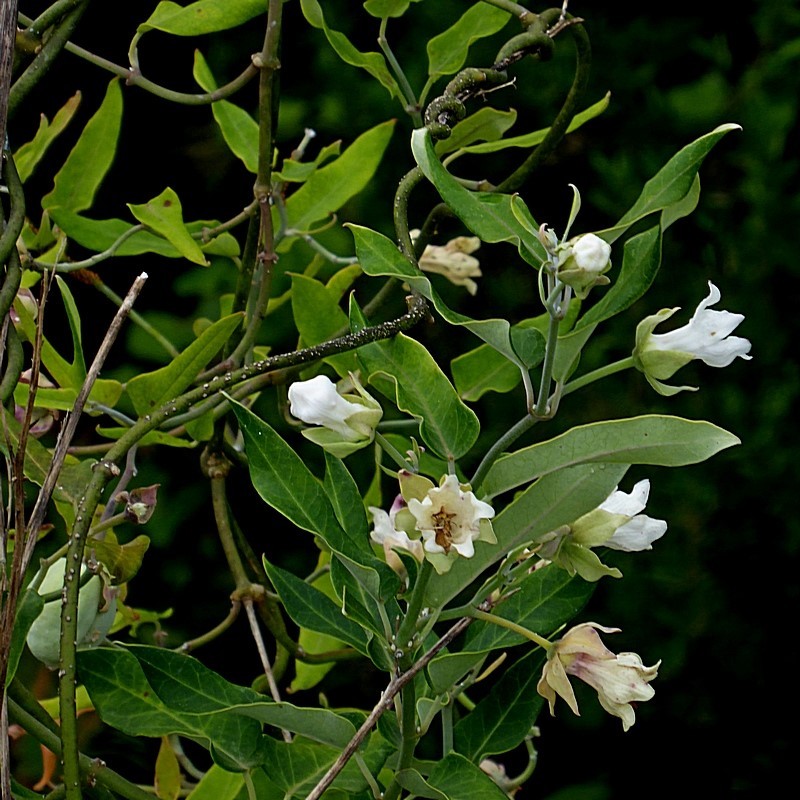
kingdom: Plantae
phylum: Tracheophyta
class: Magnoliopsida
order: Gentianales
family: Apocynaceae
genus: Araujia
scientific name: Araujia sericifera
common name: White bladderflower
